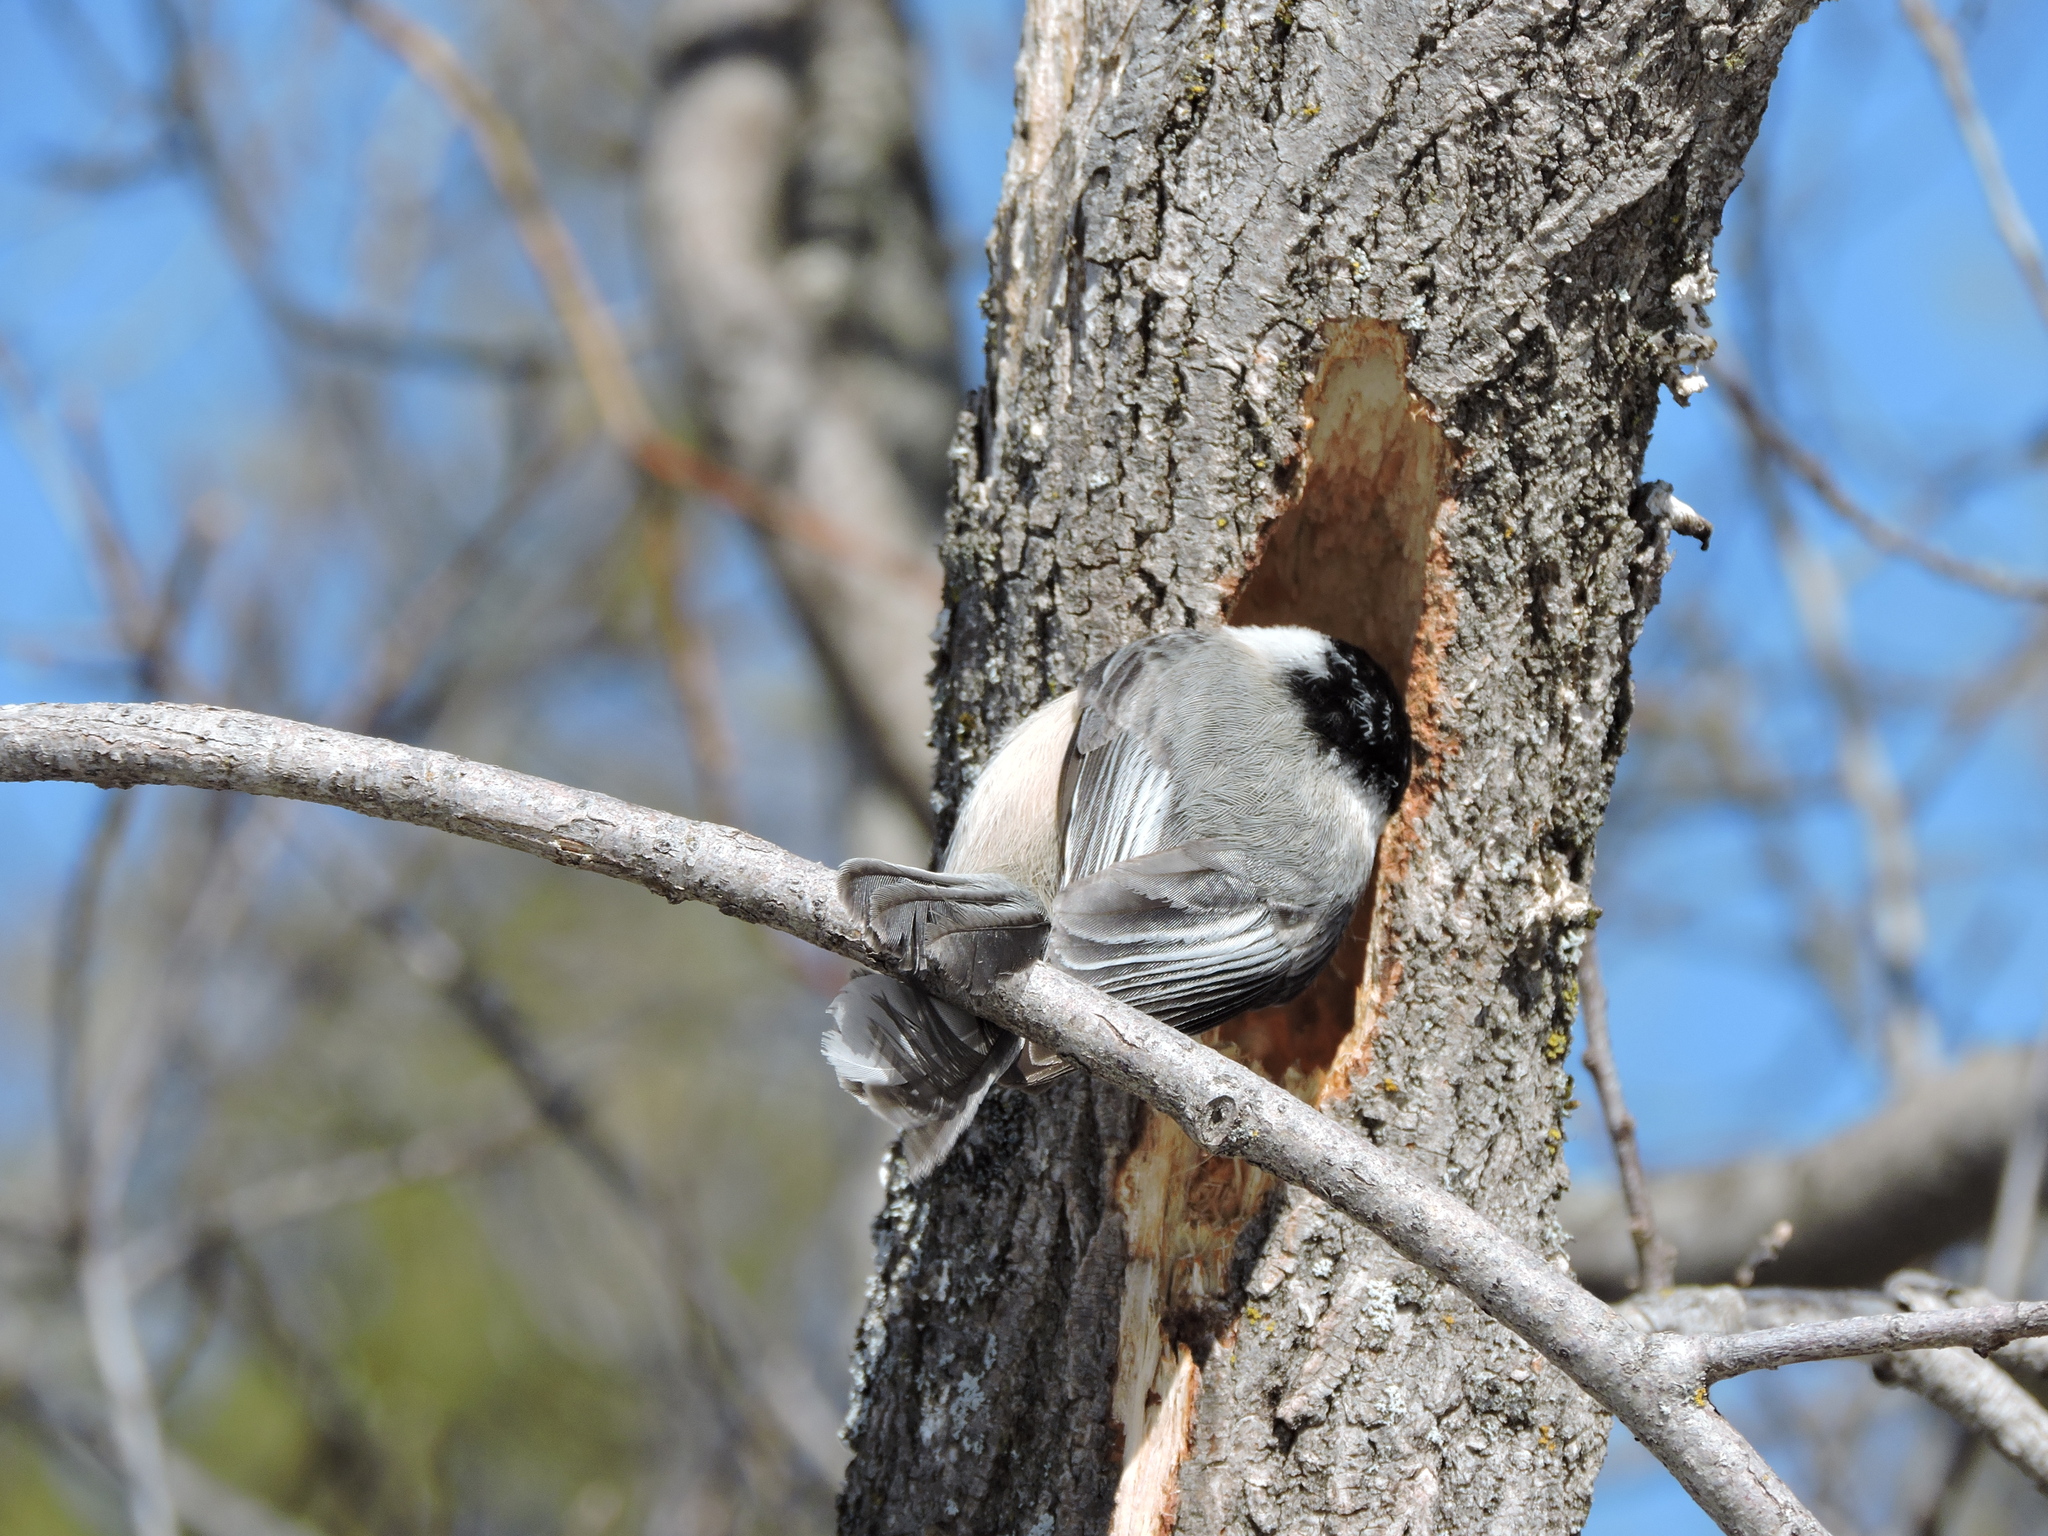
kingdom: Animalia
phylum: Chordata
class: Aves
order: Passeriformes
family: Paridae
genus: Poecile
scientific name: Poecile atricapillus
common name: Black-capped chickadee
